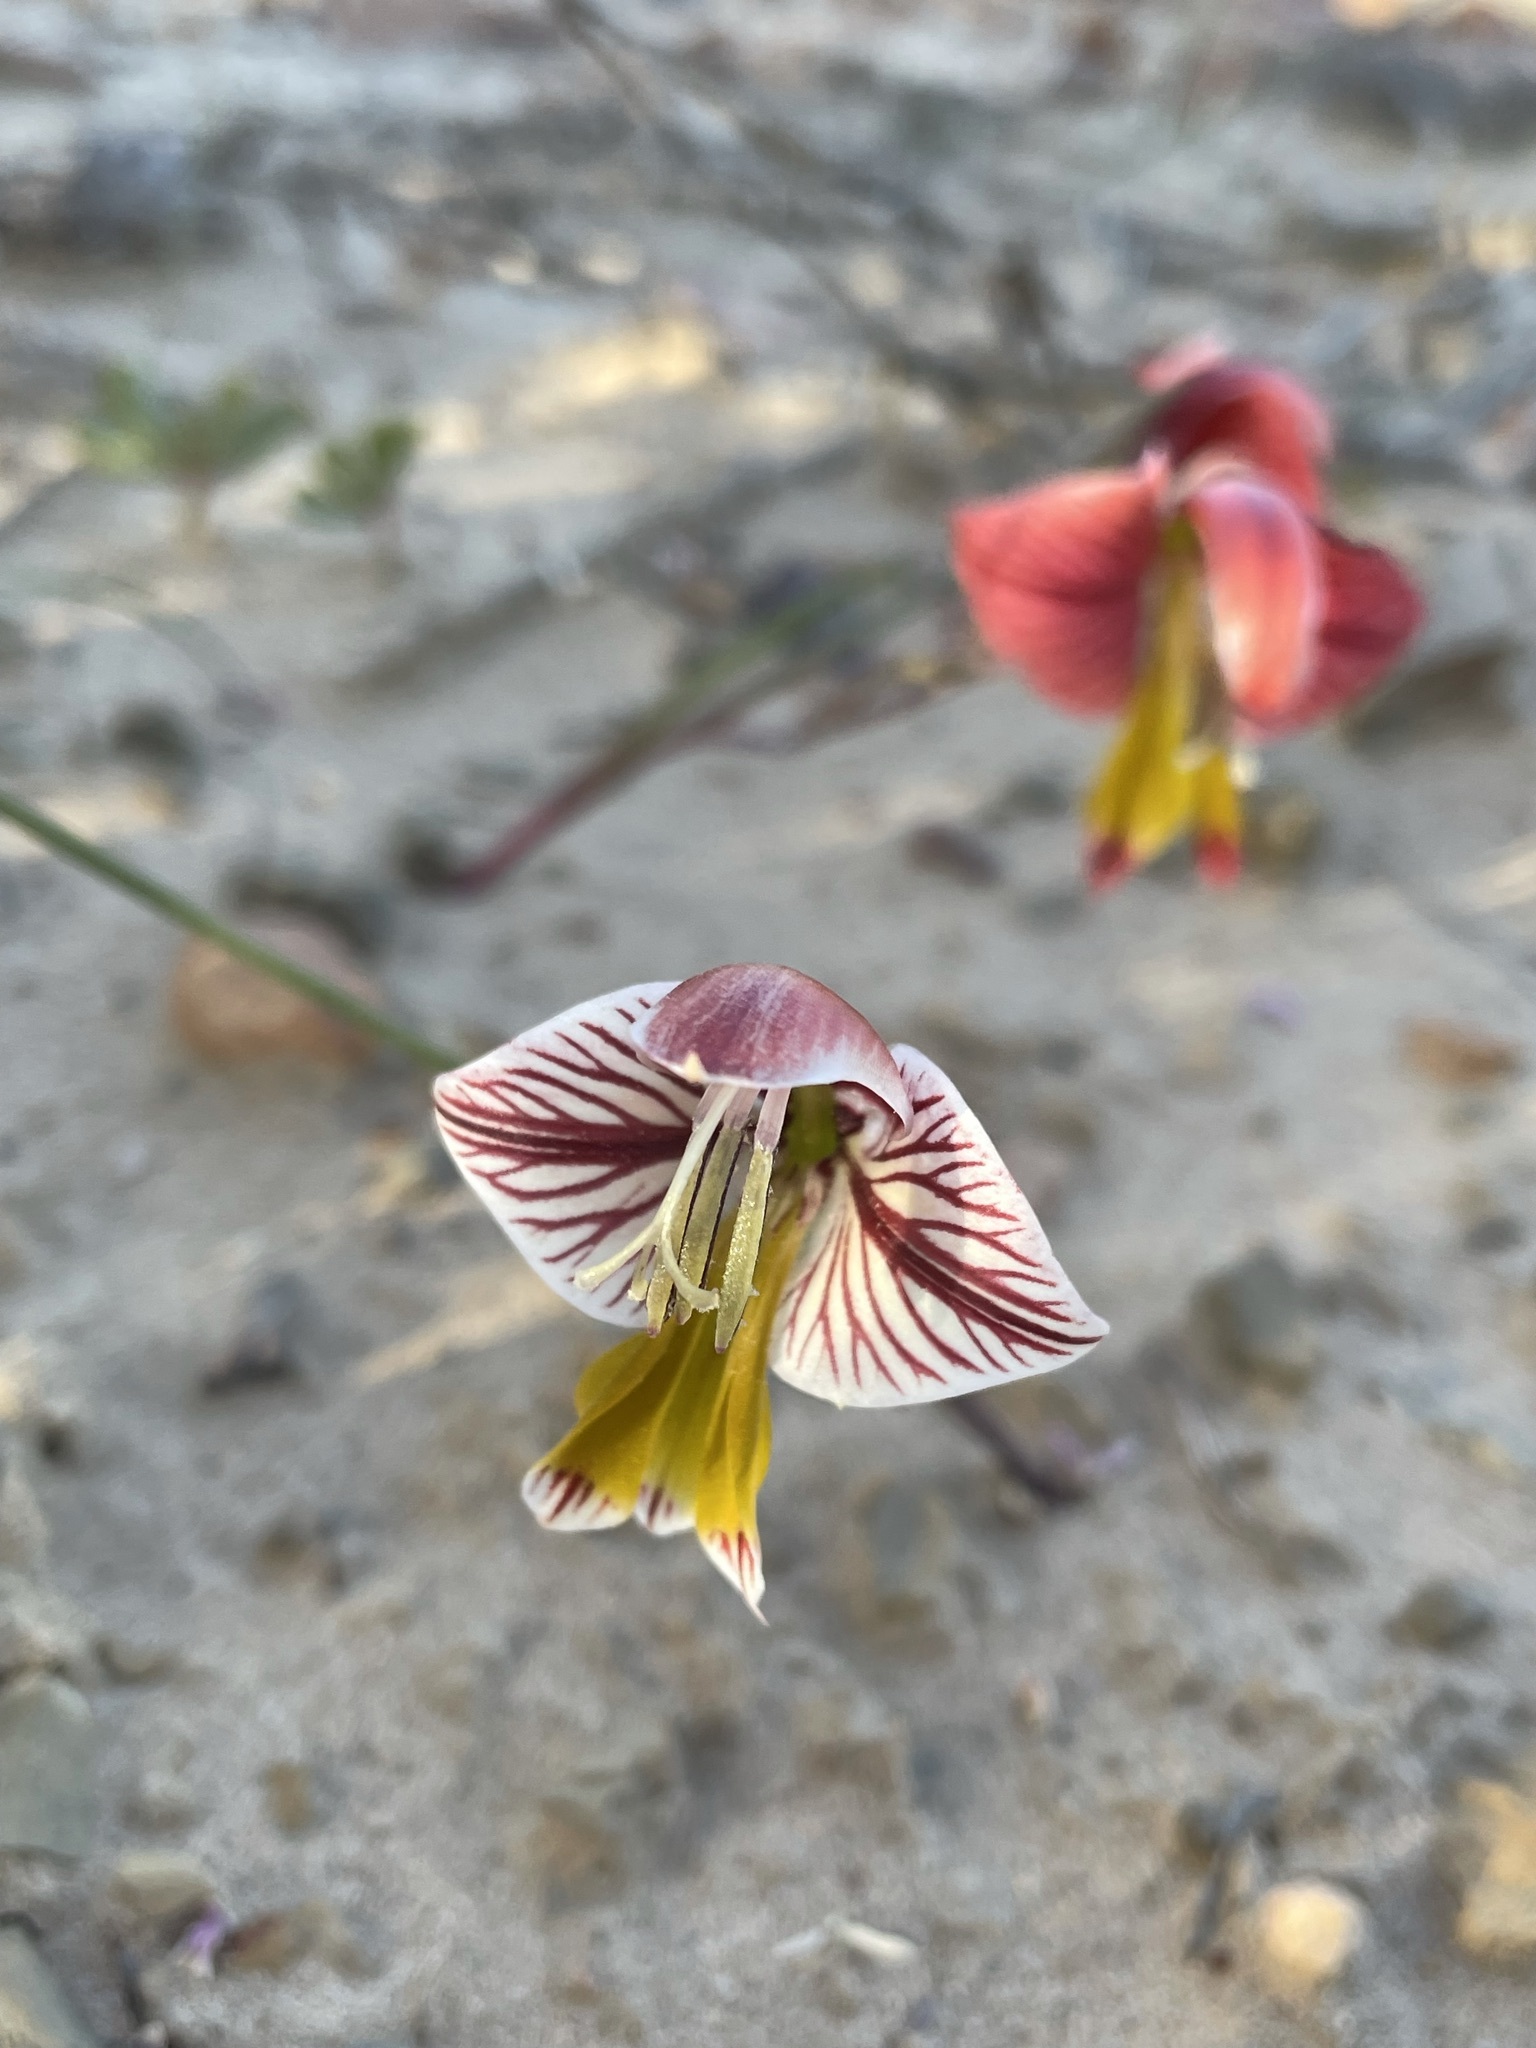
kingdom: Plantae
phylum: Tracheophyta
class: Liliopsida
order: Asparagales
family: Iridaceae
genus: Gladiolus
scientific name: Gladiolus watermeyeri
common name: Sweet kalkoentjie
